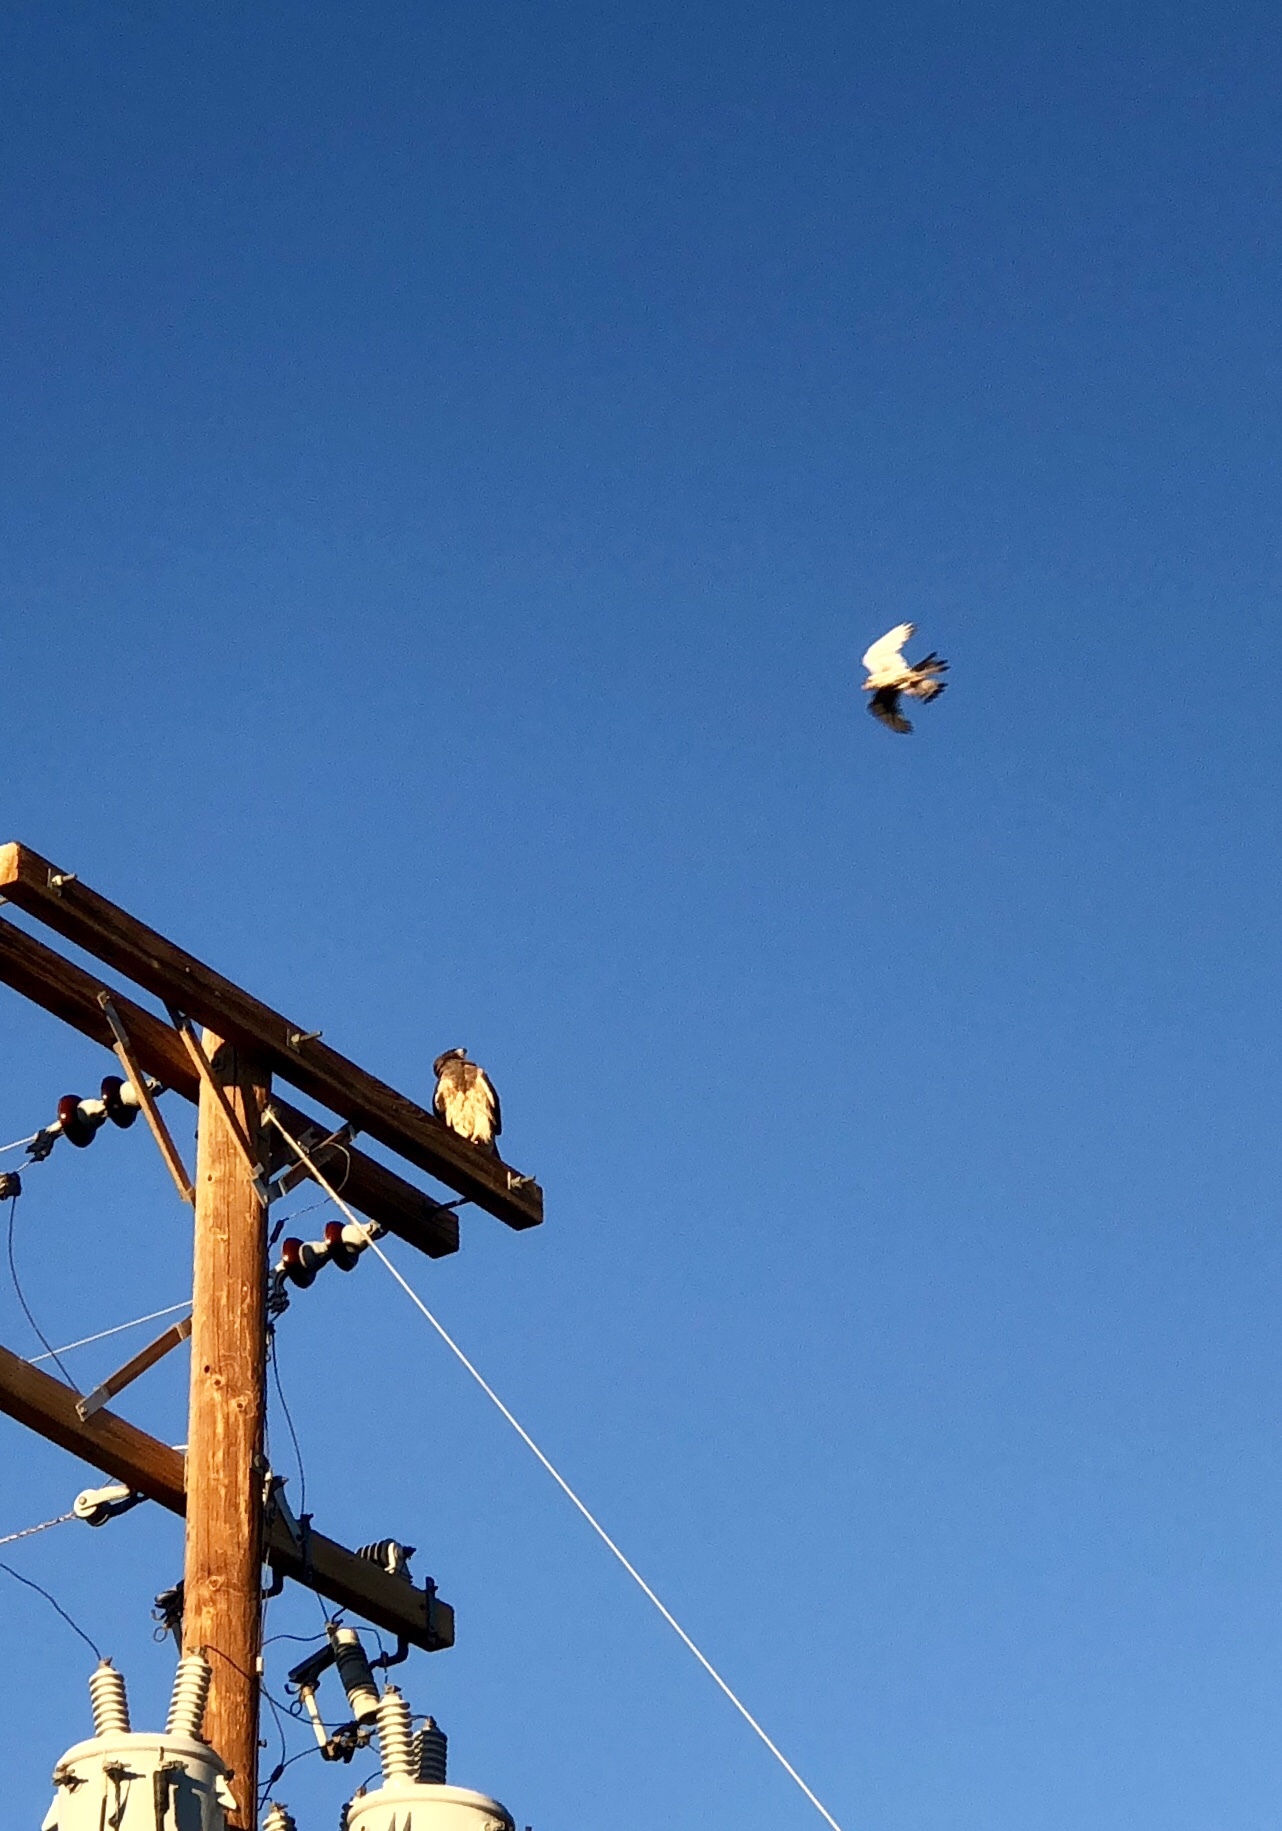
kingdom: Animalia
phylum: Chordata
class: Aves
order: Accipitriformes
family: Accipitridae
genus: Buteo
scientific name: Buteo swainsoni
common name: Swainson's hawk
